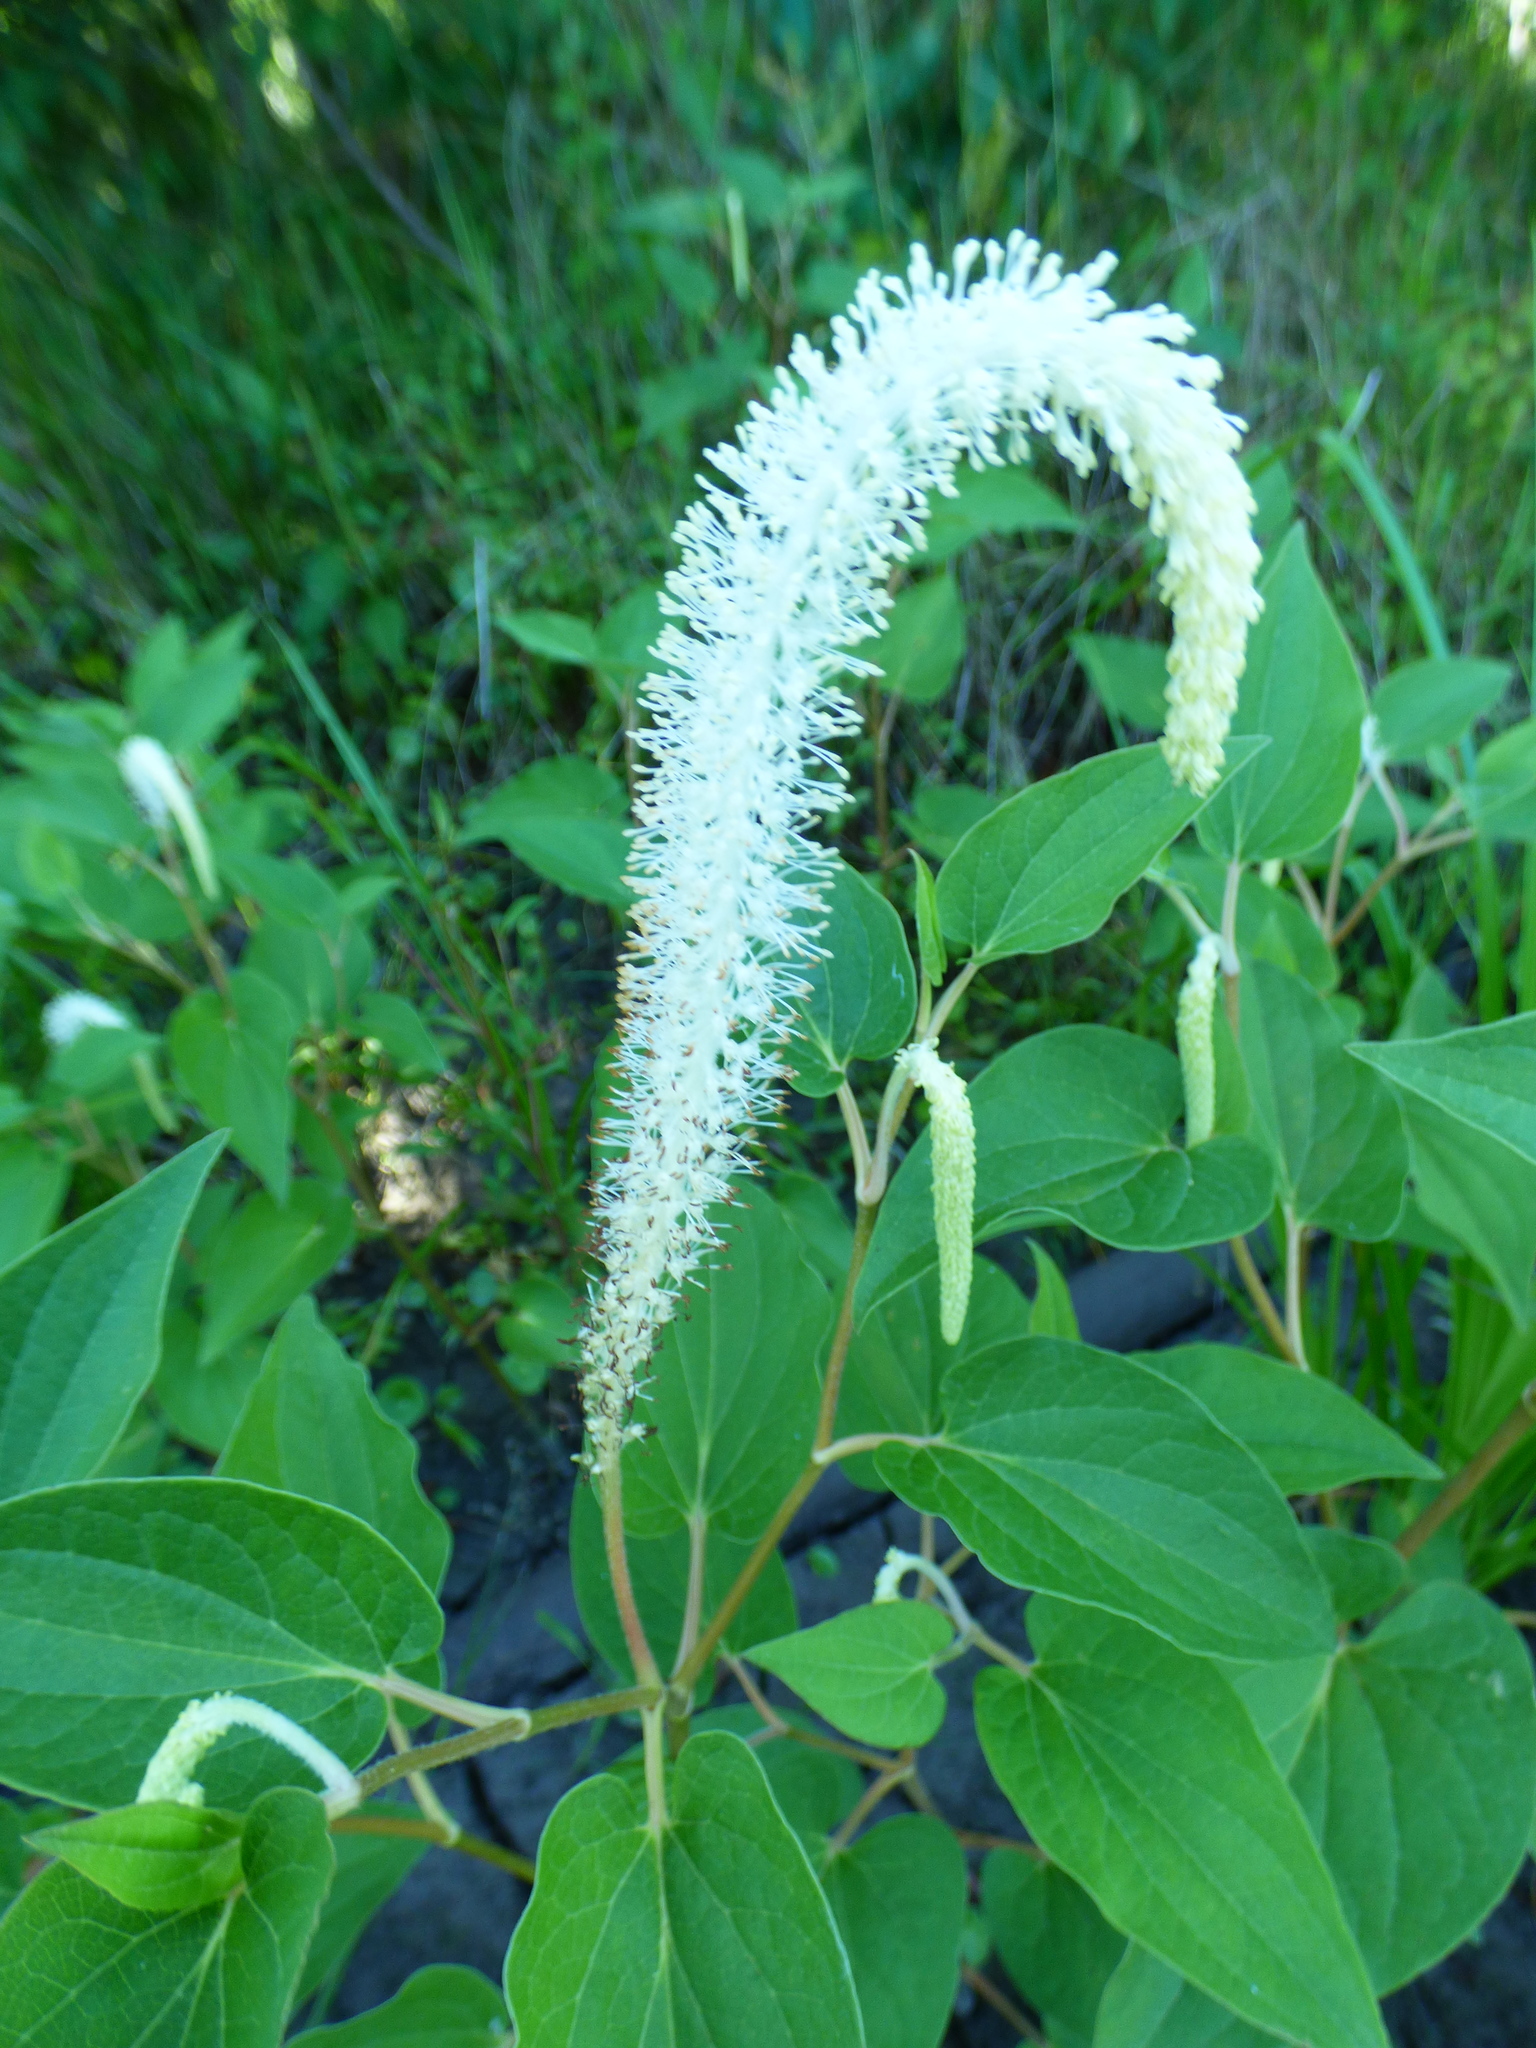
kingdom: Plantae
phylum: Tracheophyta
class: Magnoliopsida
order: Piperales
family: Saururaceae
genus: Saururus
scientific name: Saururus cernuus
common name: Lizard's-tail
